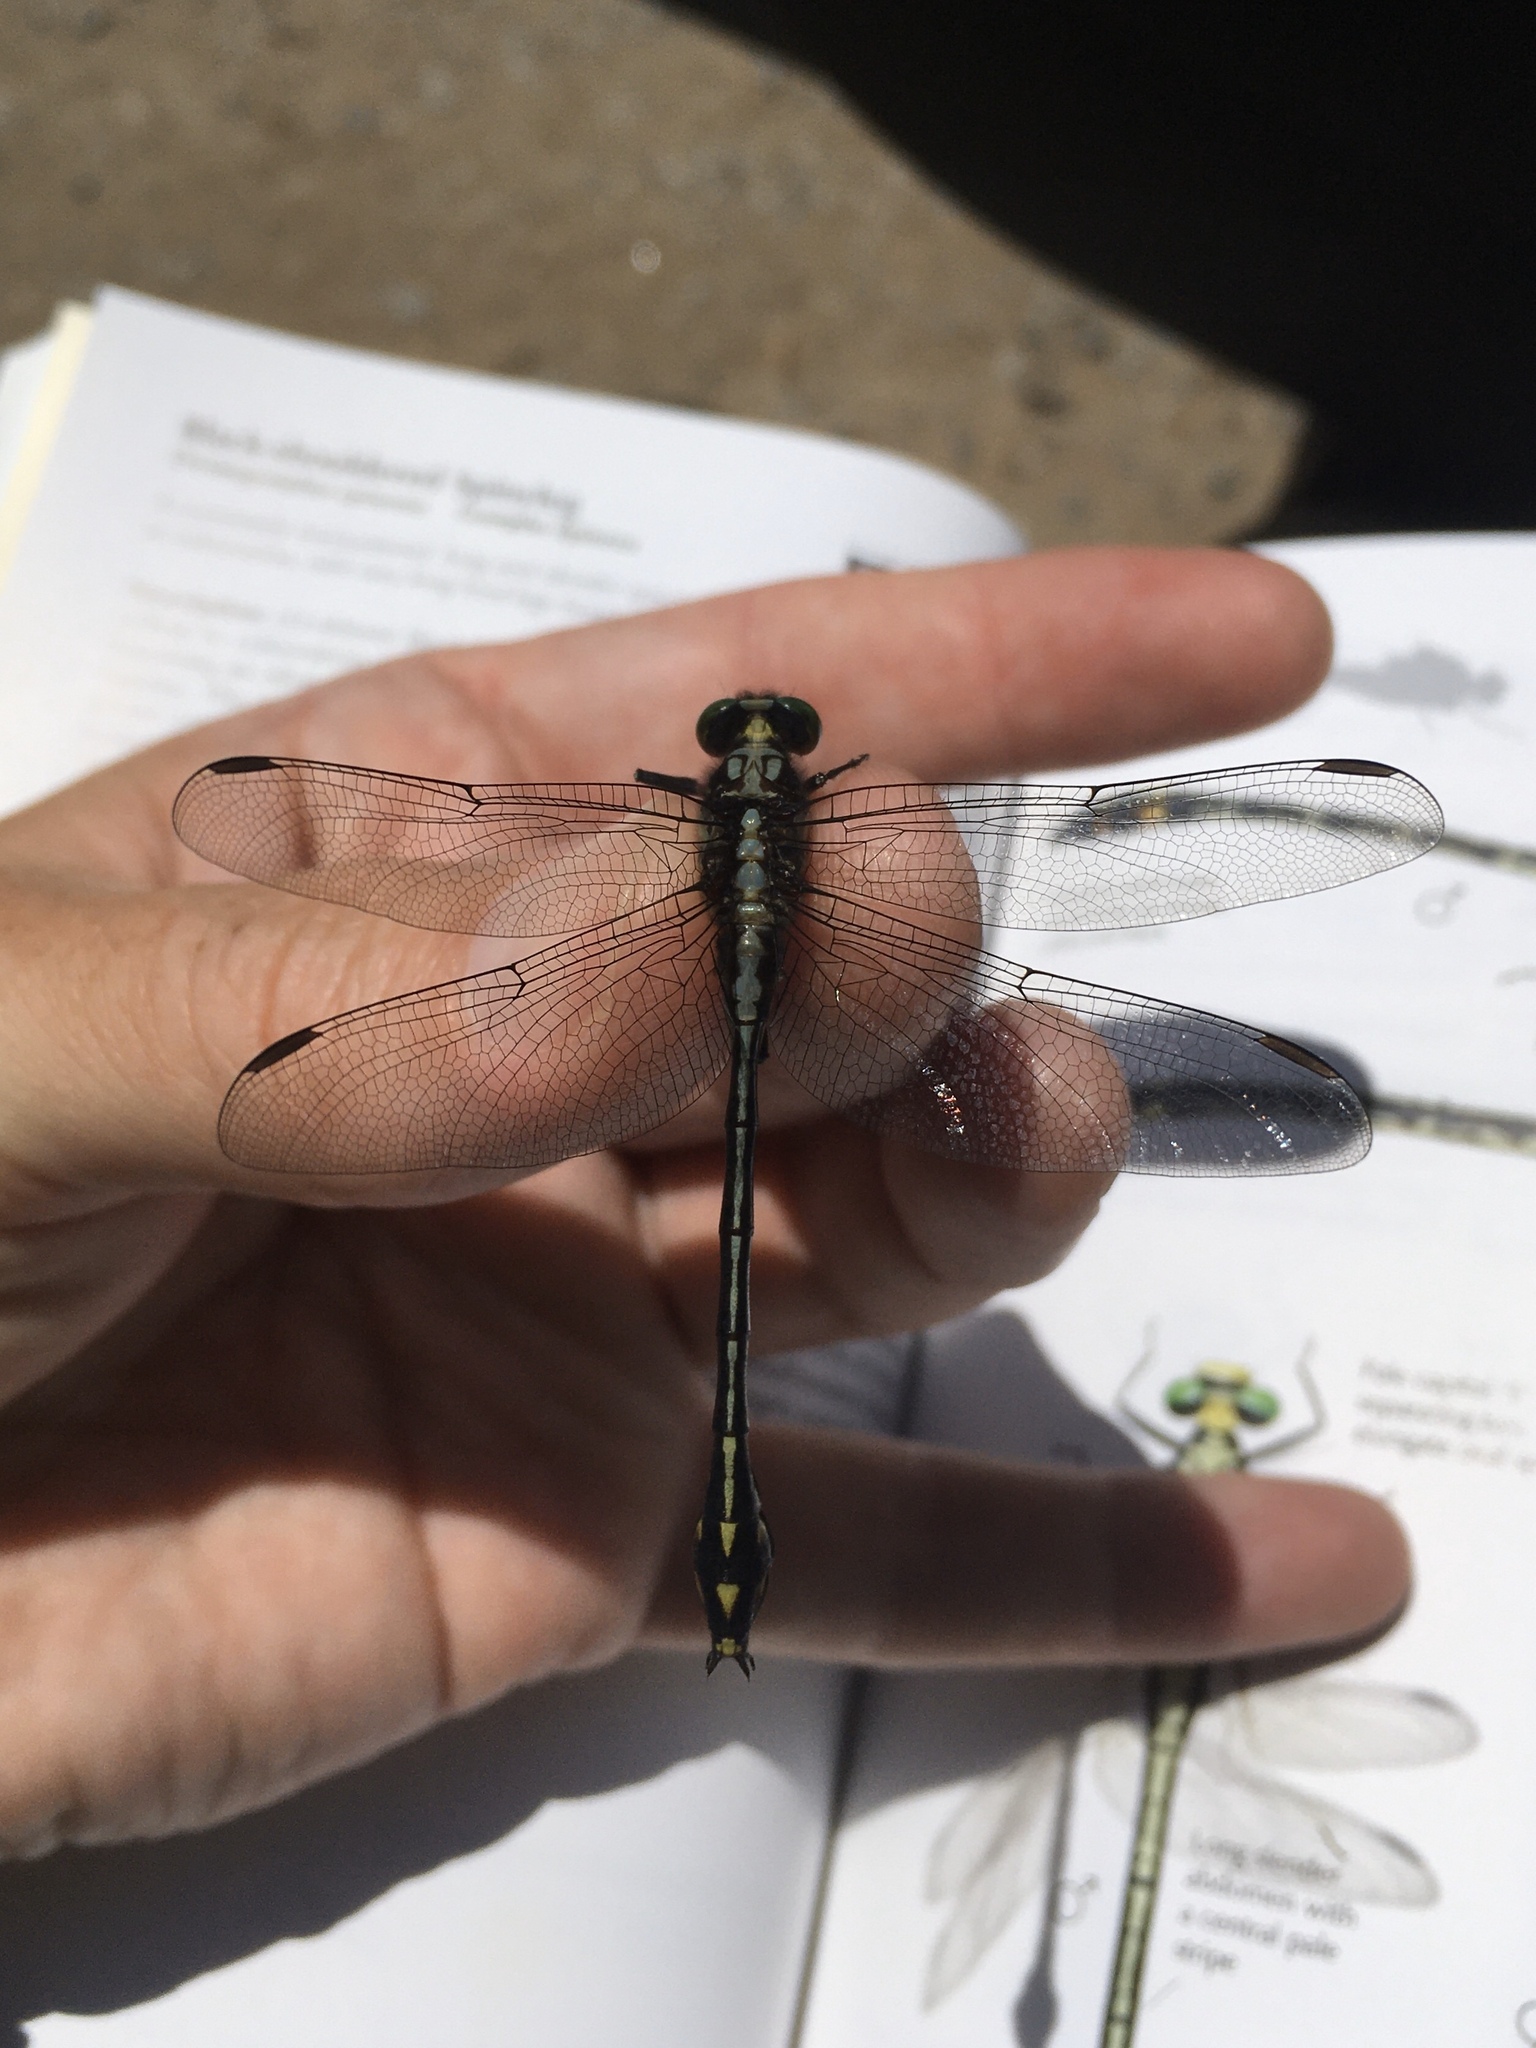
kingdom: Animalia
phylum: Arthropoda
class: Insecta
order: Odonata
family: Gomphidae
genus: Dromogomphus
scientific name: Dromogomphus spinosus
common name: Black-shouldered spinyleg
